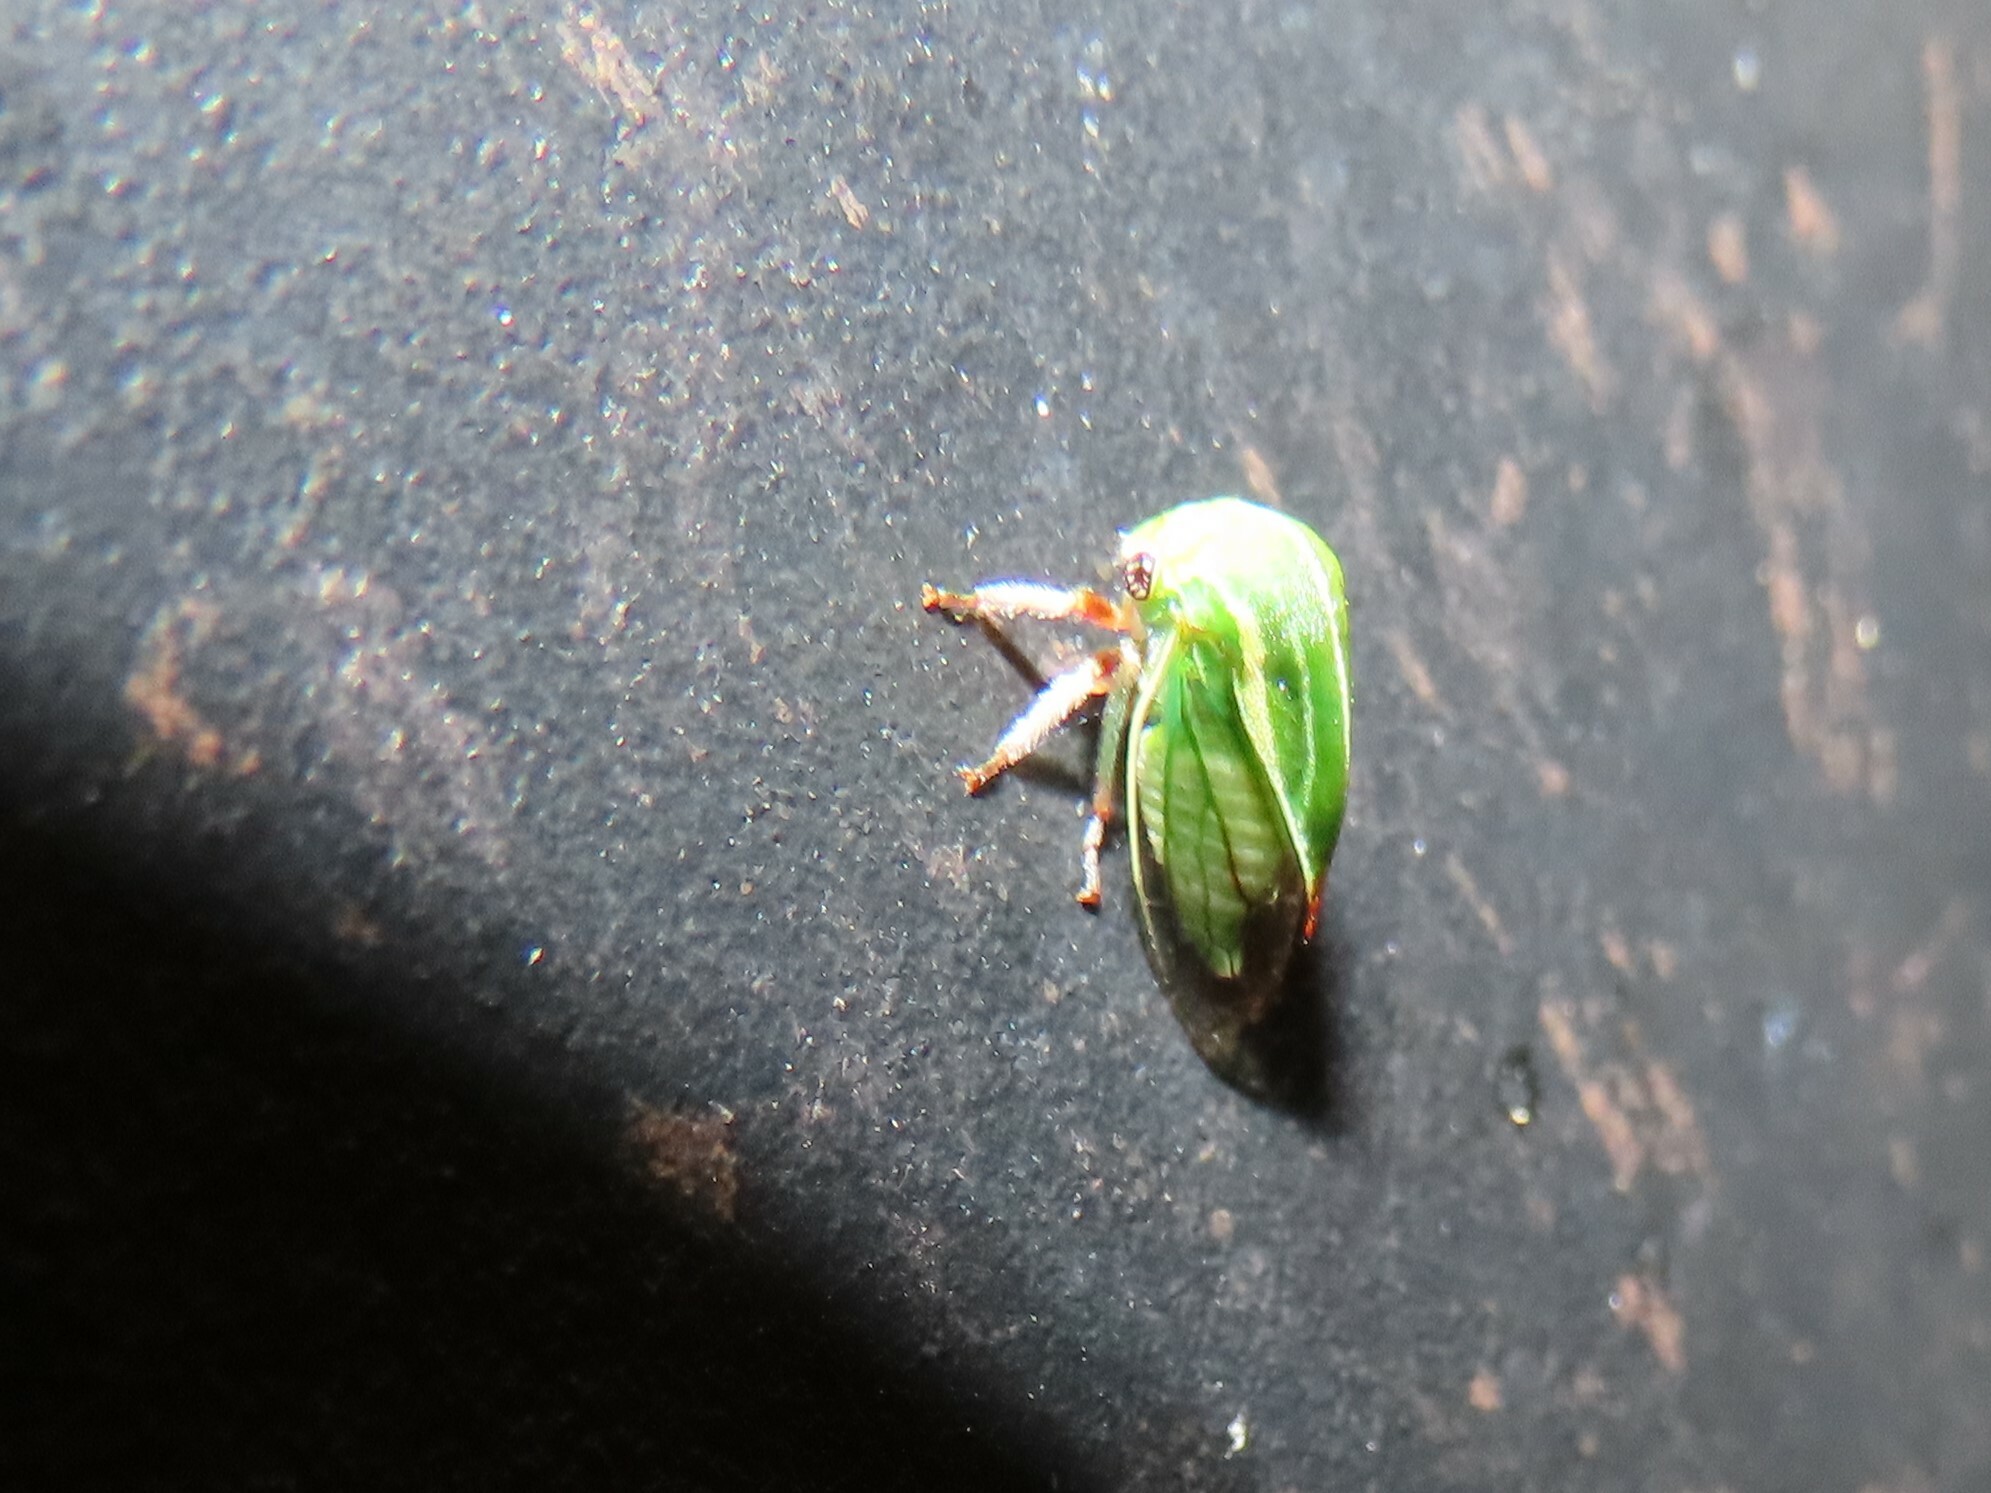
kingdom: Animalia
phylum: Arthropoda
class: Insecta
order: Hemiptera
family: Membracidae
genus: Tortistilus
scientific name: Tortistilus lateralis
